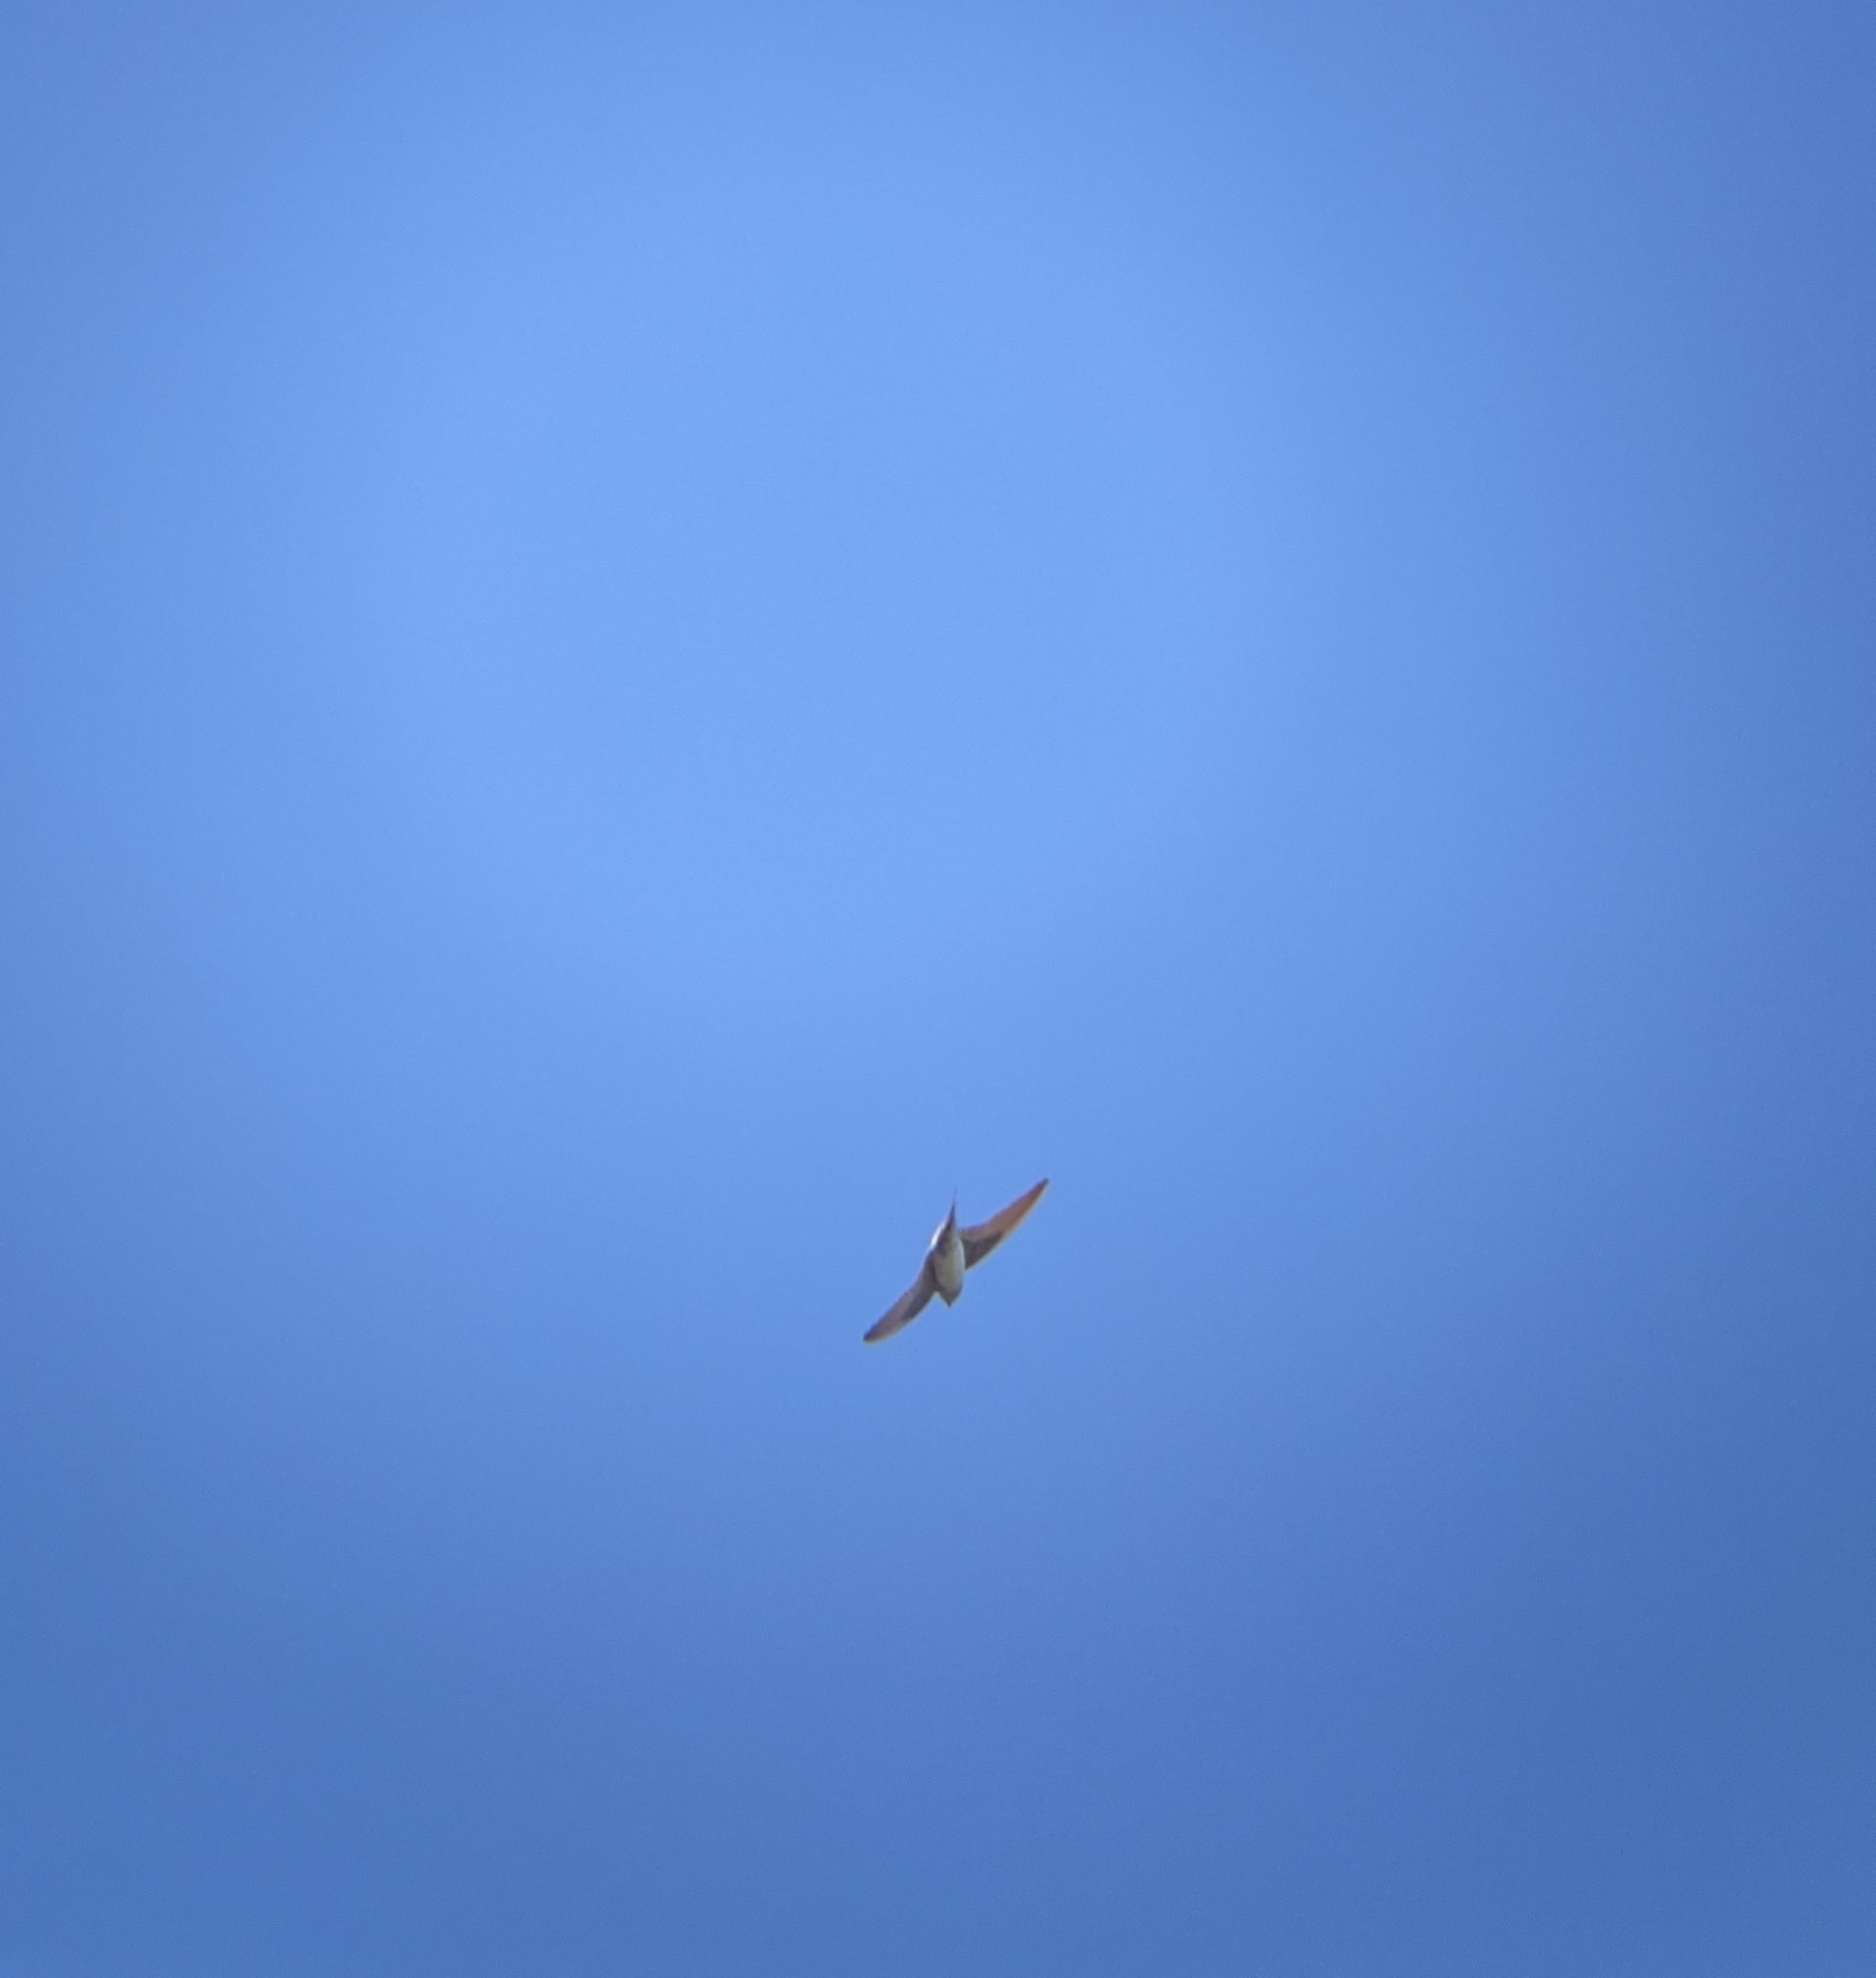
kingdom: Animalia
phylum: Chordata
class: Aves
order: Passeriformes
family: Hirundinidae
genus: Hirundo
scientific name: Hirundo rustica
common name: Barn swallow
